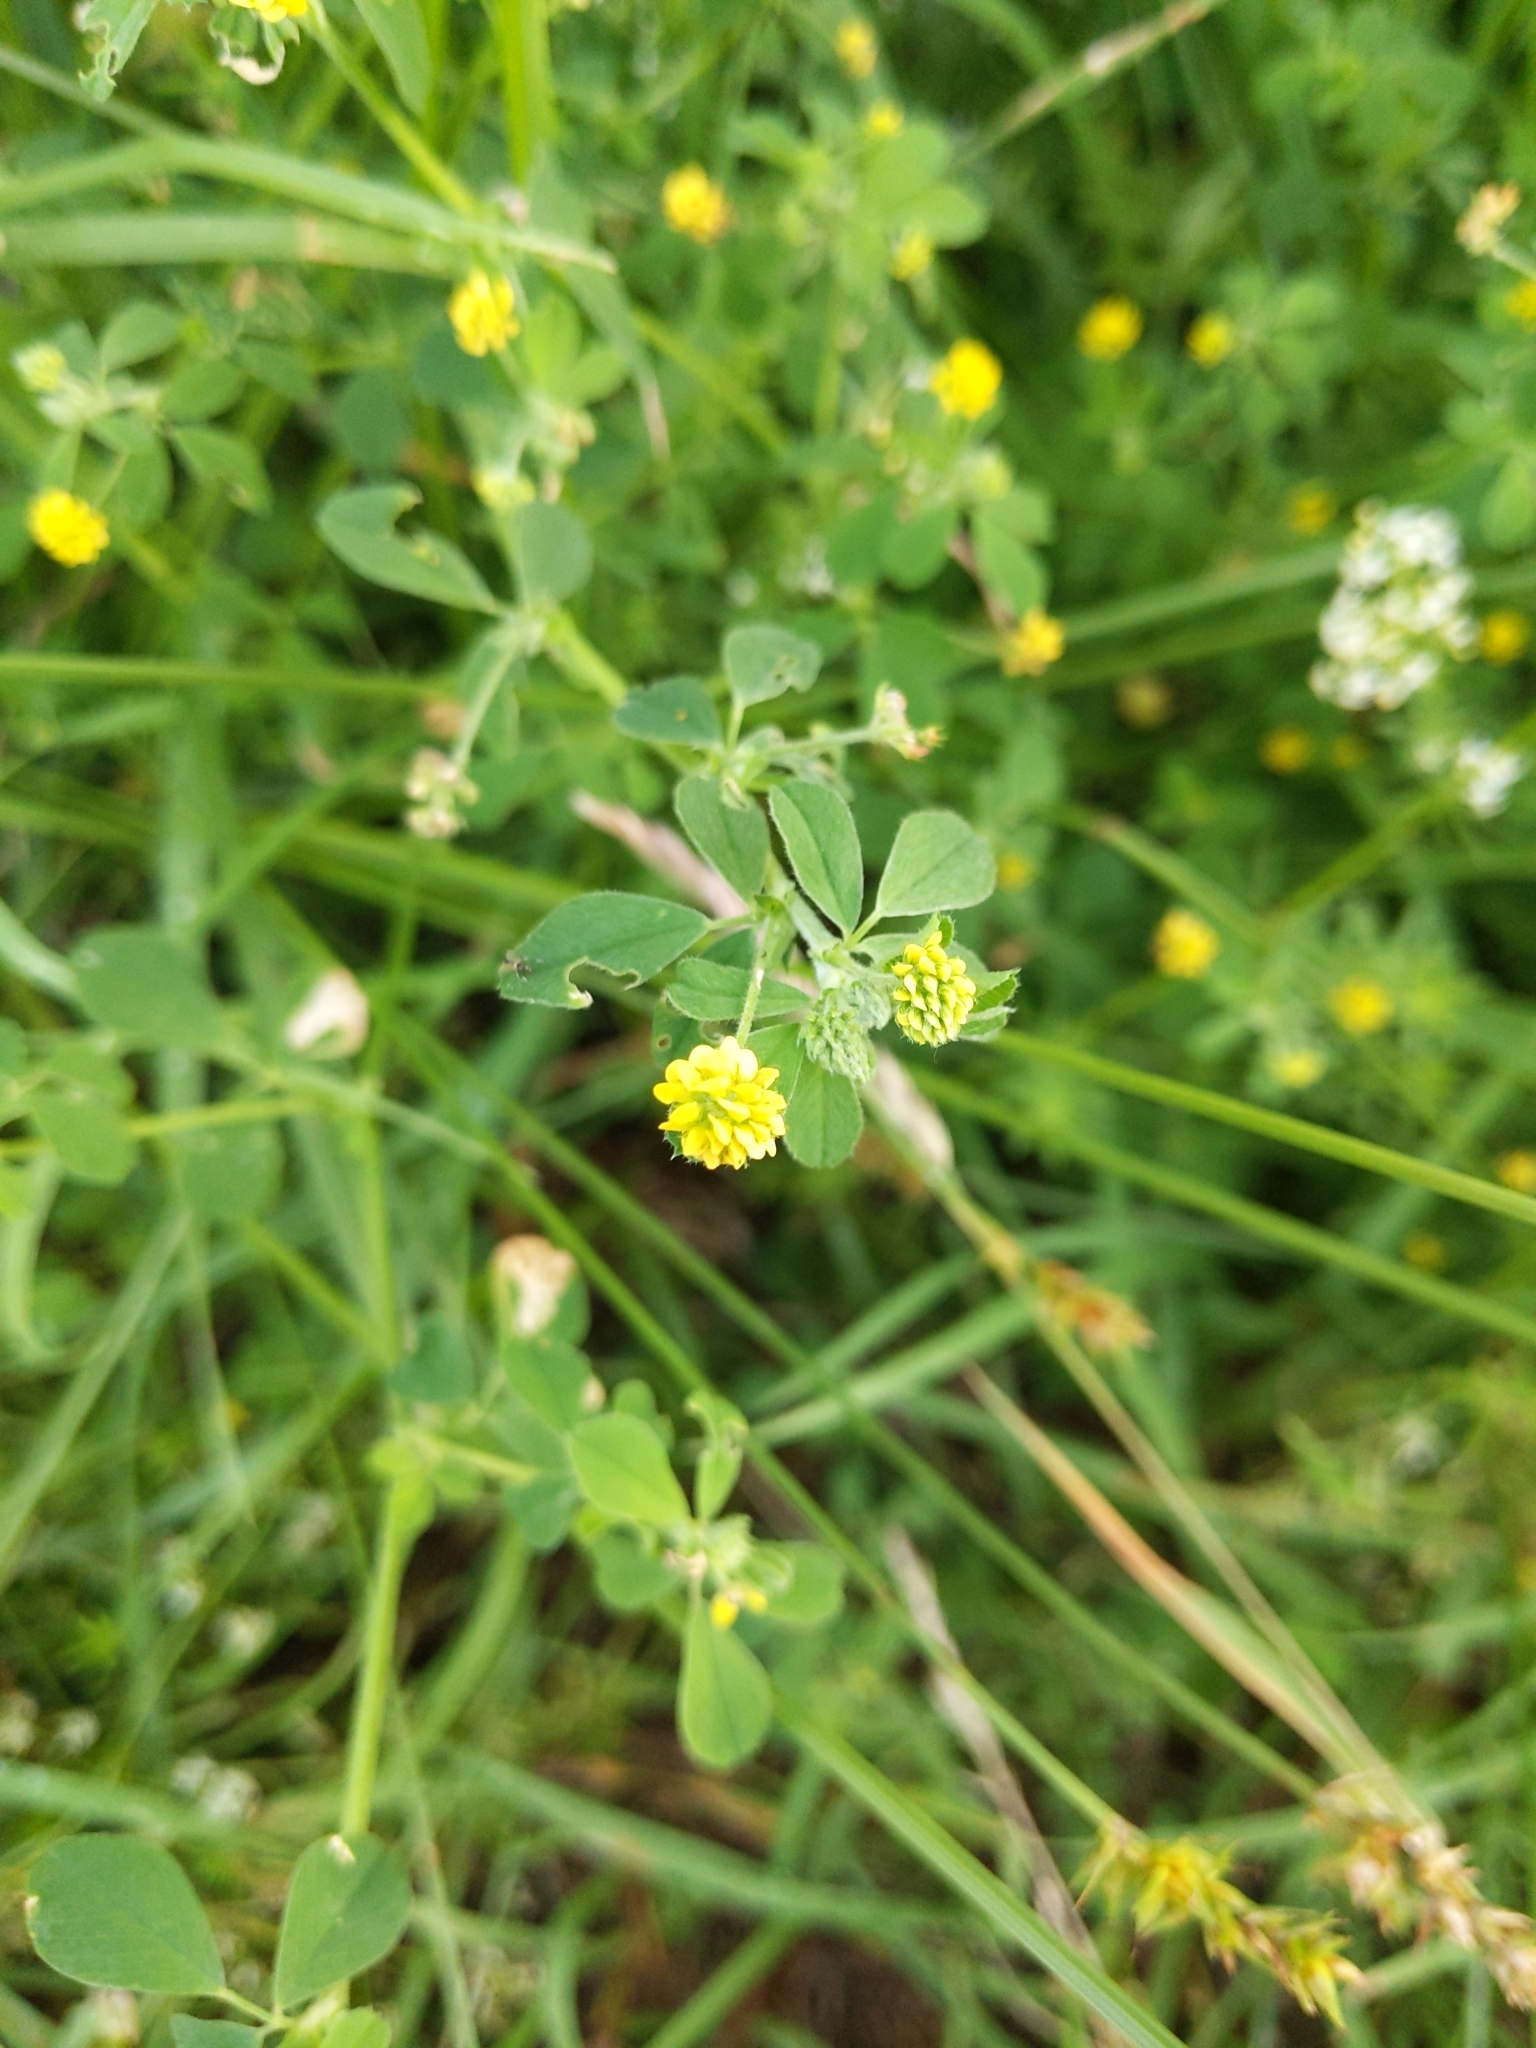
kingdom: Plantae
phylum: Tracheophyta
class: Magnoliopsida
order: Fabales
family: Fabaceae
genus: Medicago
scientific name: Medicago lupulina
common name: Black medick
